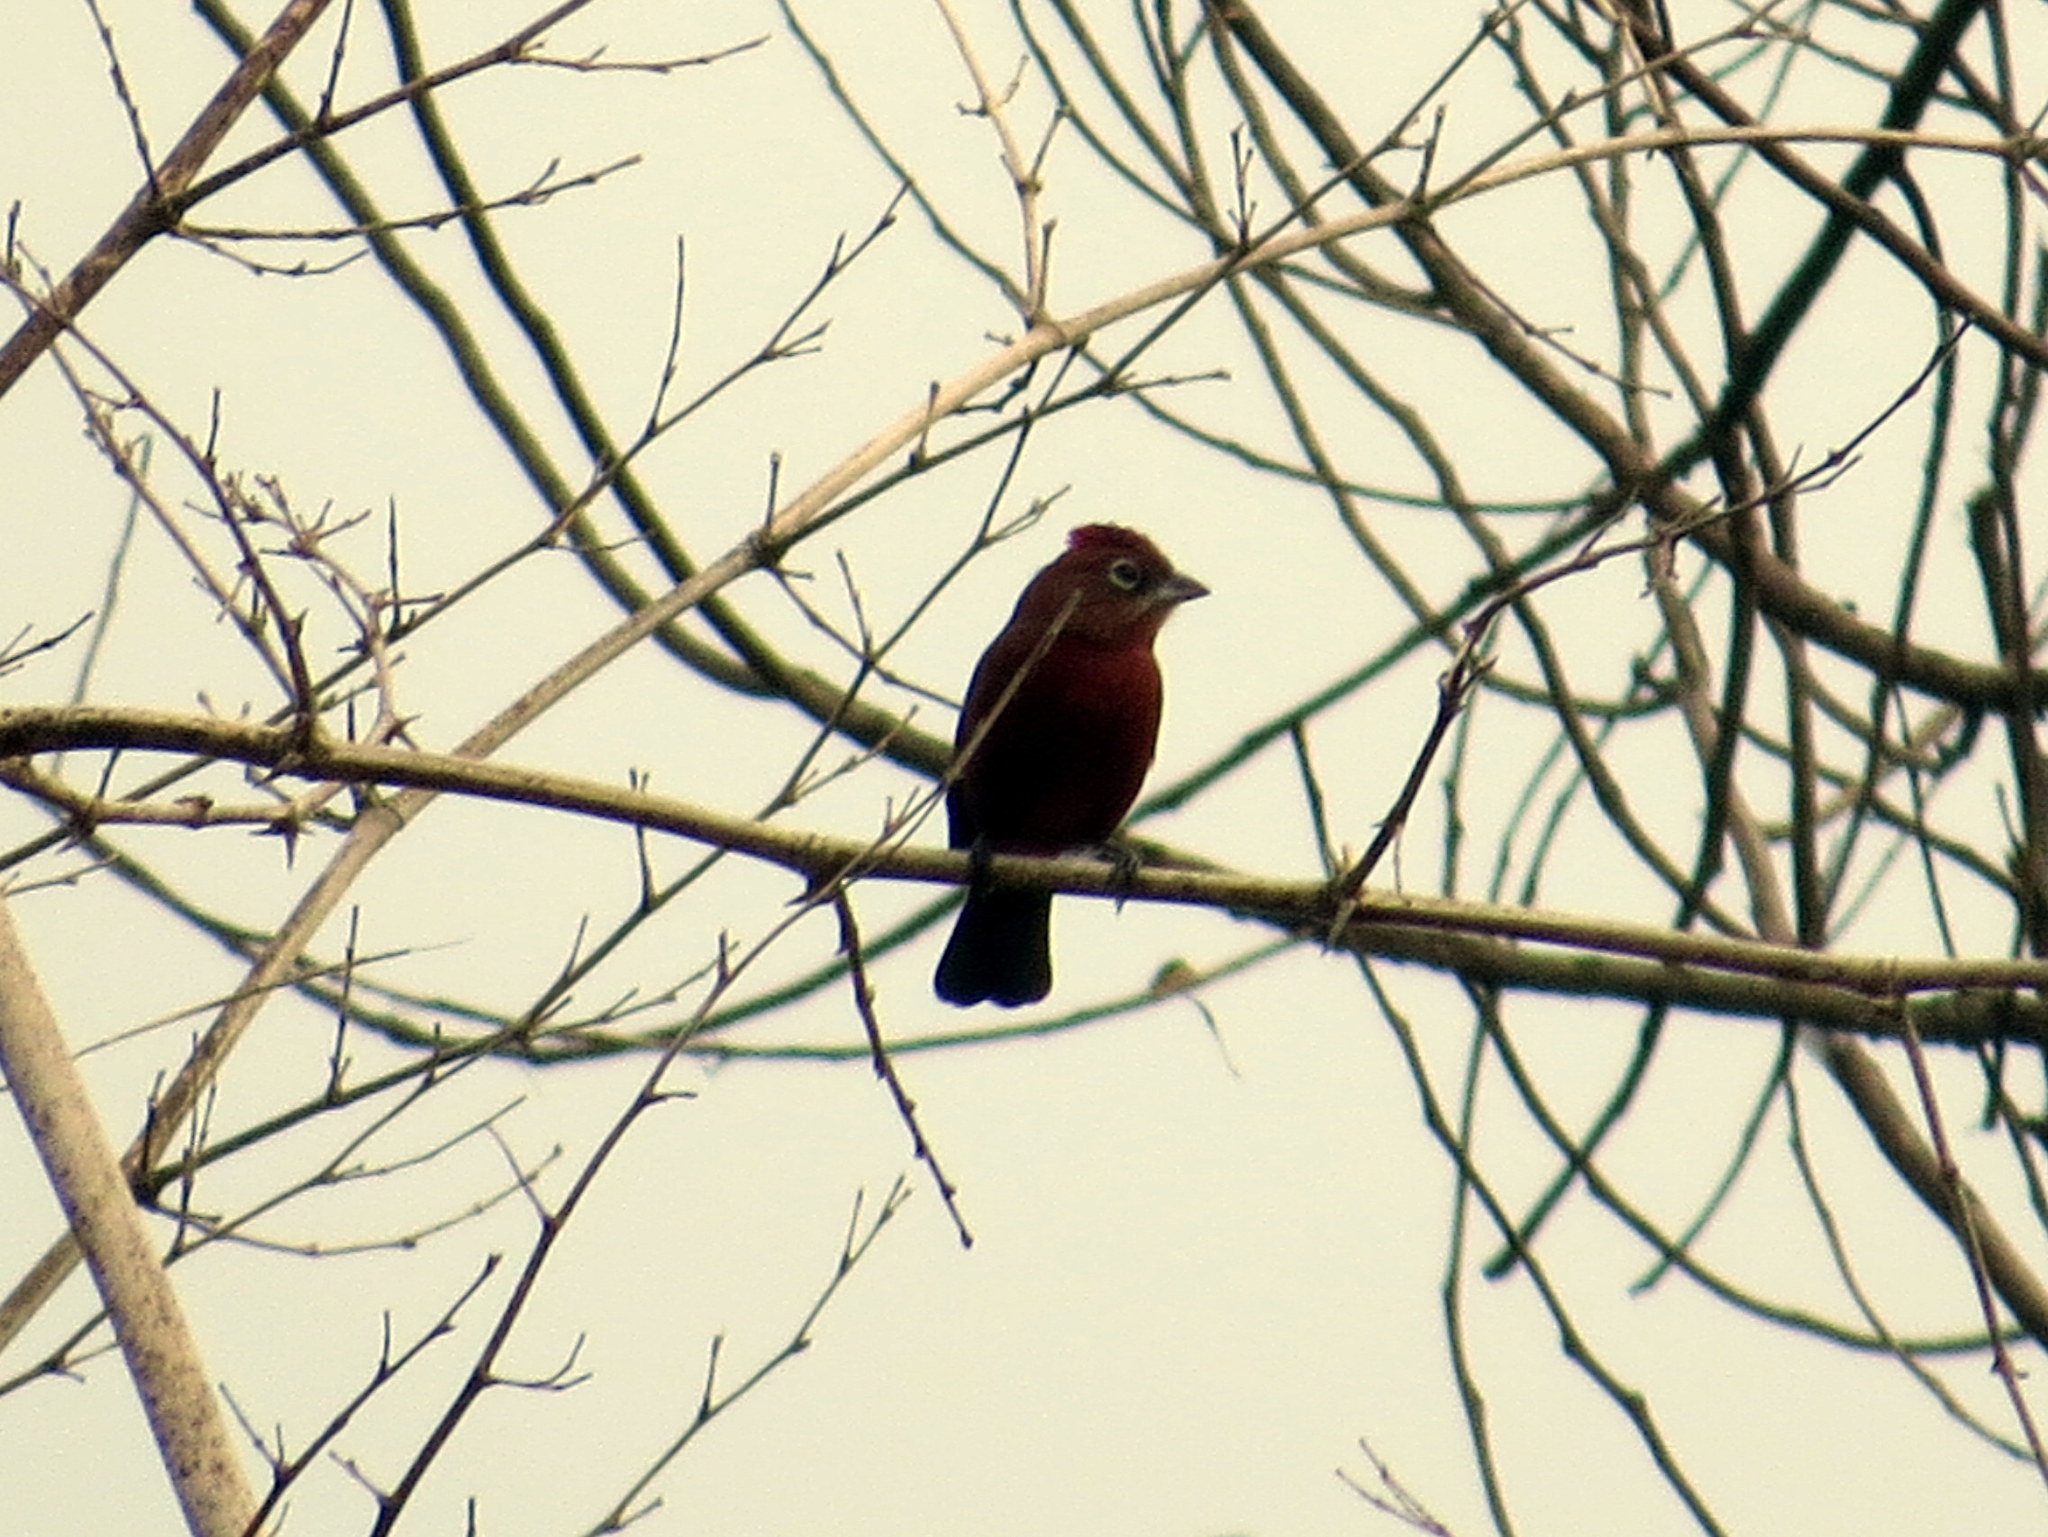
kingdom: Animalia
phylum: Chordata
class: Aves
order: Passeriformes
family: Thraupidae
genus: Coryphospingus
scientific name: Coryphospingus cucullatus
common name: Red pileated finch
